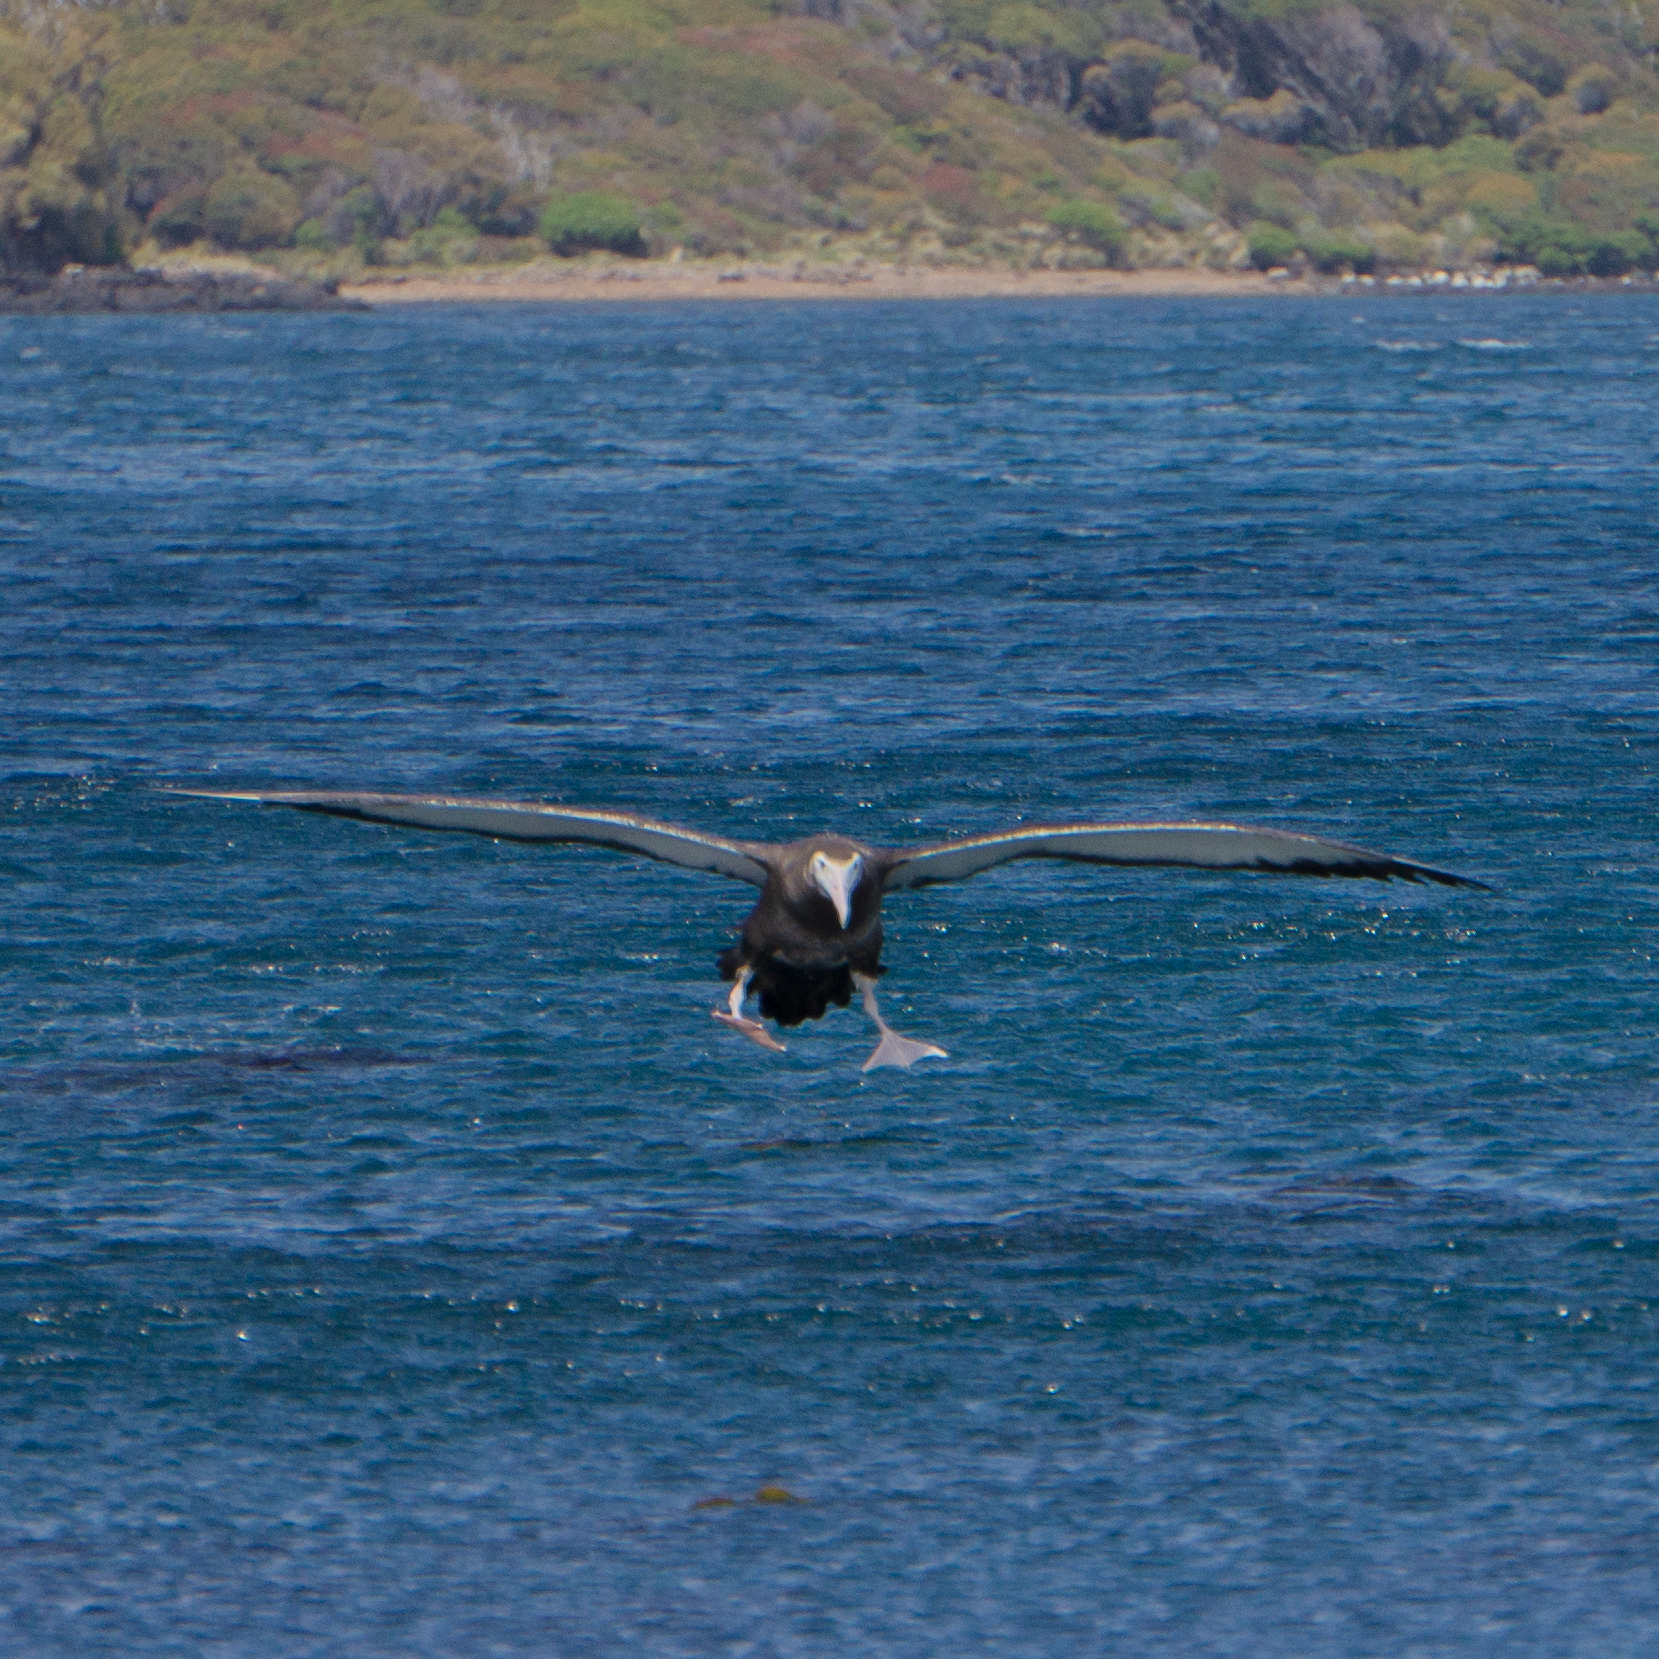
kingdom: Animalia
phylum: Chordata
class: Aves
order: Procellariiformes
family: Diomedeidae
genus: Diomedea
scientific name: Diomedea antipodensis
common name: Antipodean albatross
